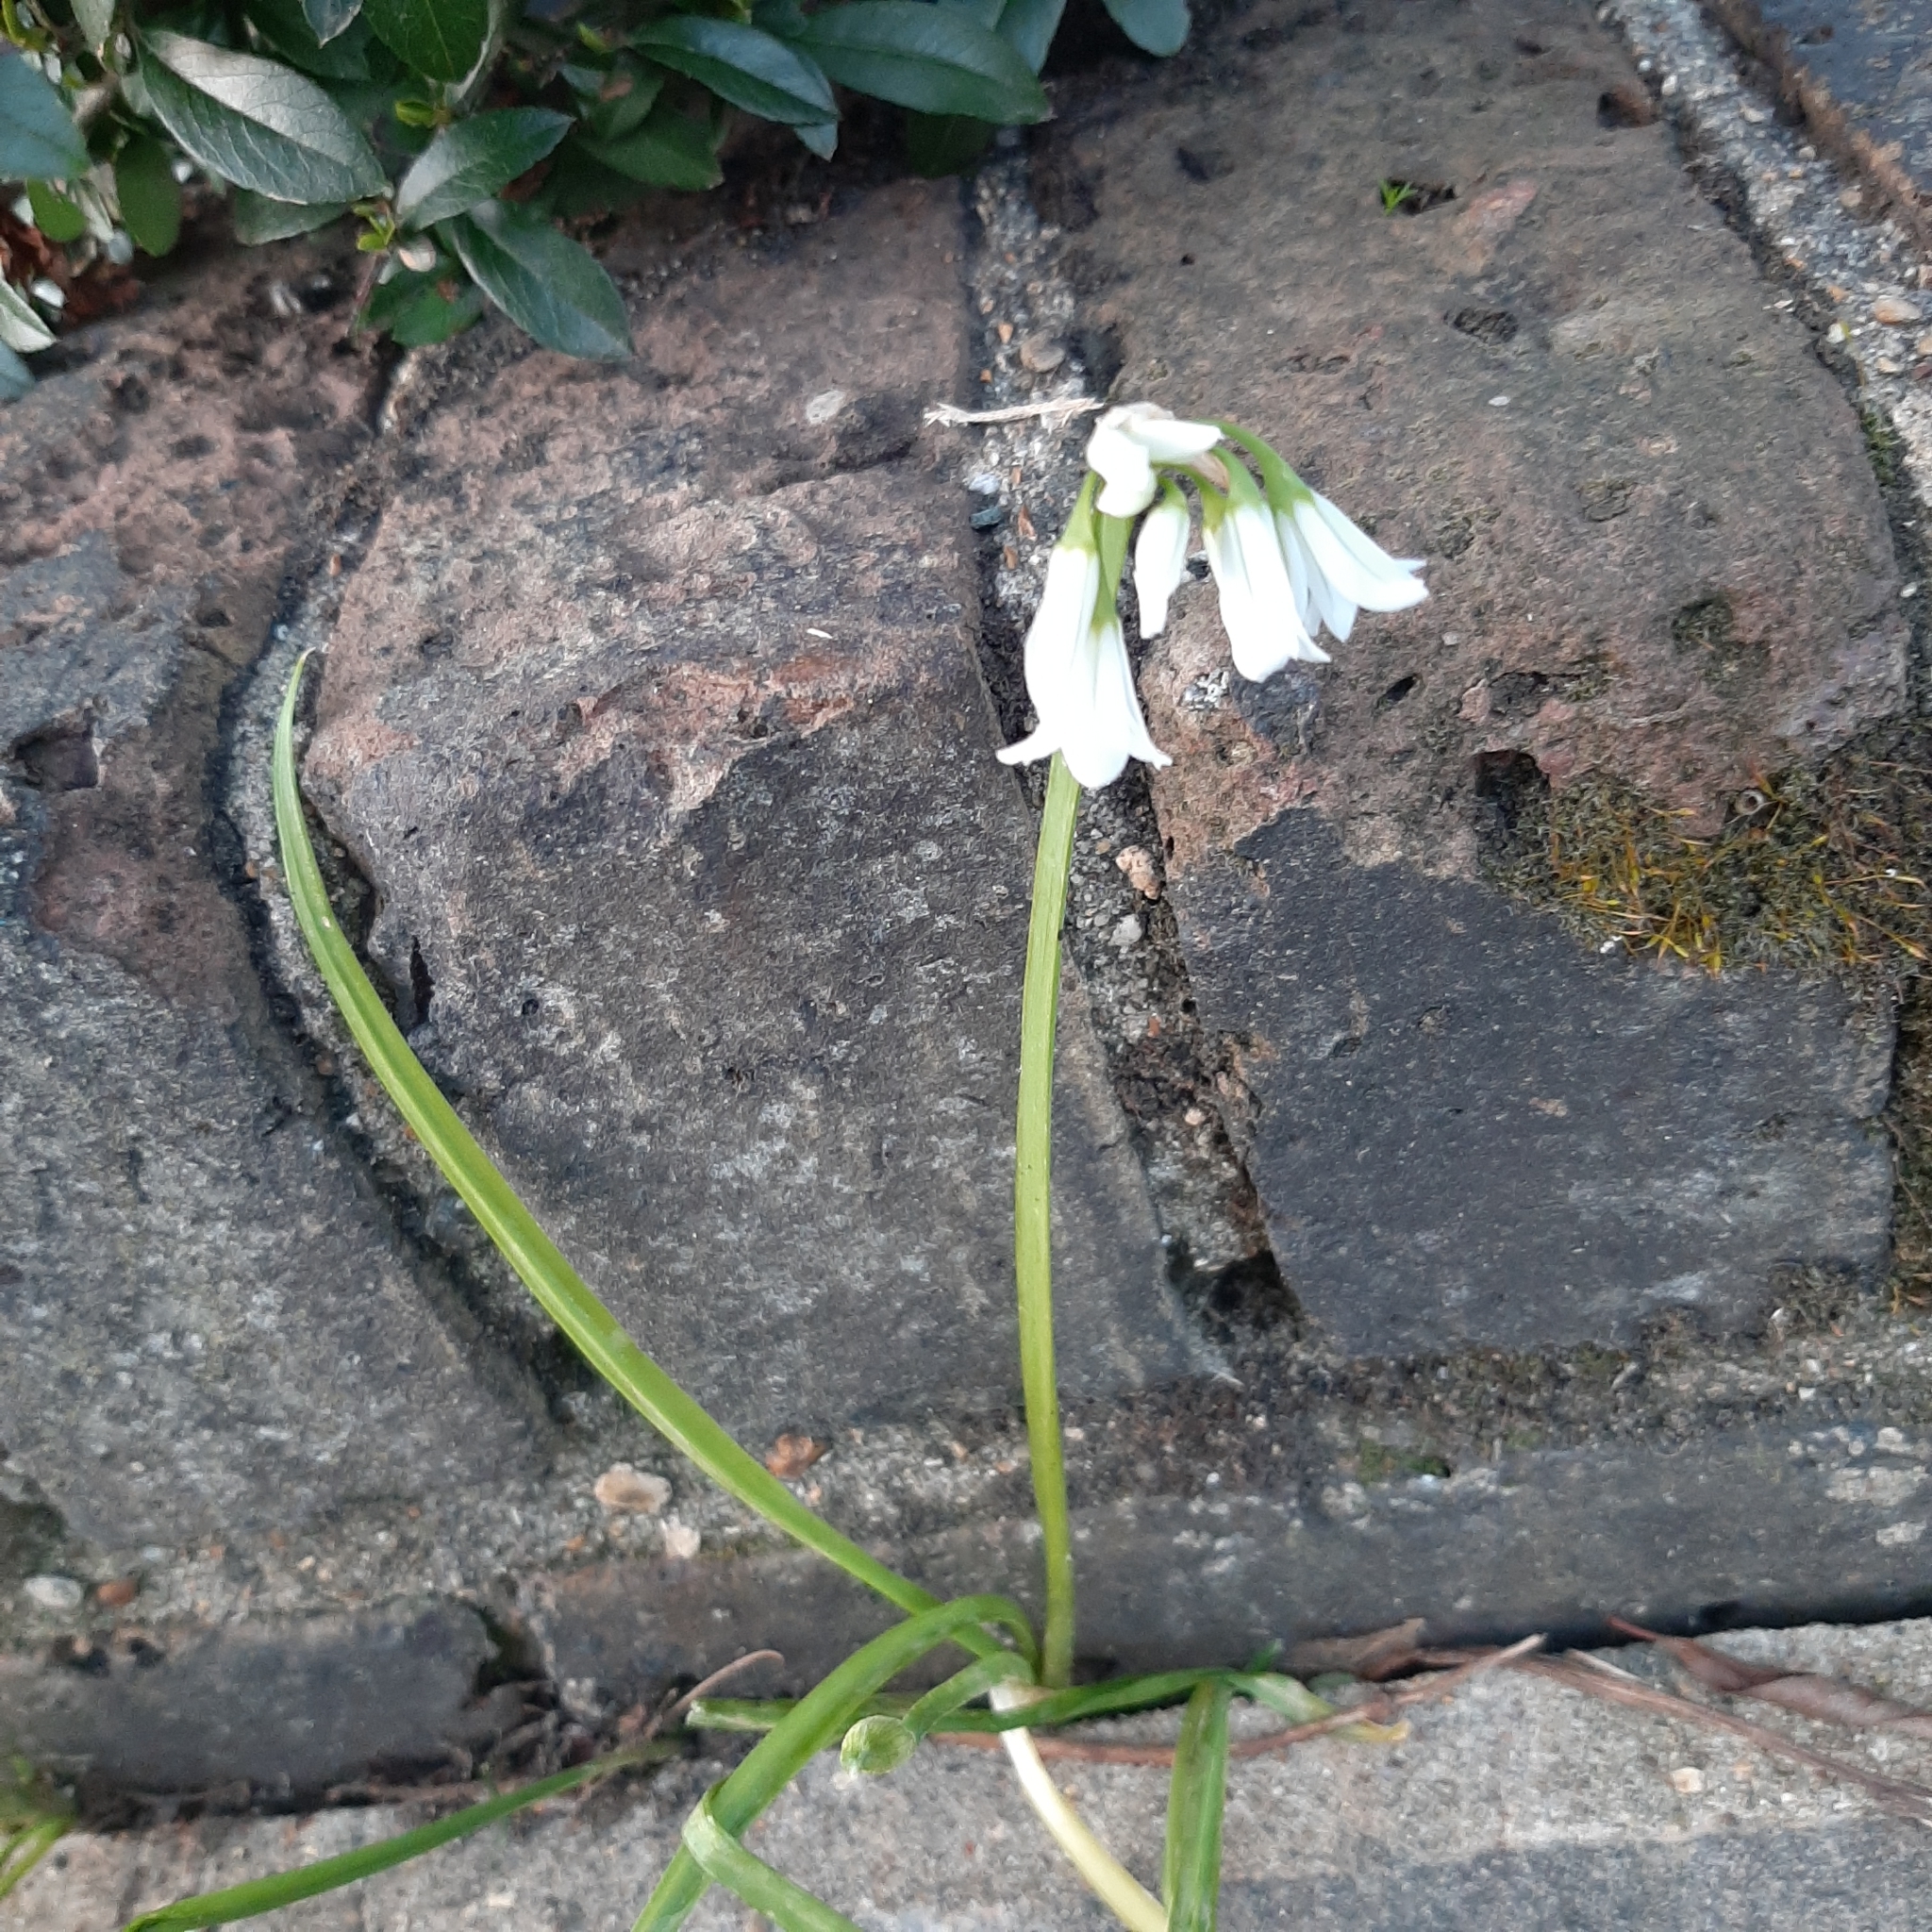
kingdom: Plantae
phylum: Tracheophyta
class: Liliopsida
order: Asparagales
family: Amaryllidaceae
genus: Allium
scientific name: Allium triquetrum
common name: Three-cornered garlic
